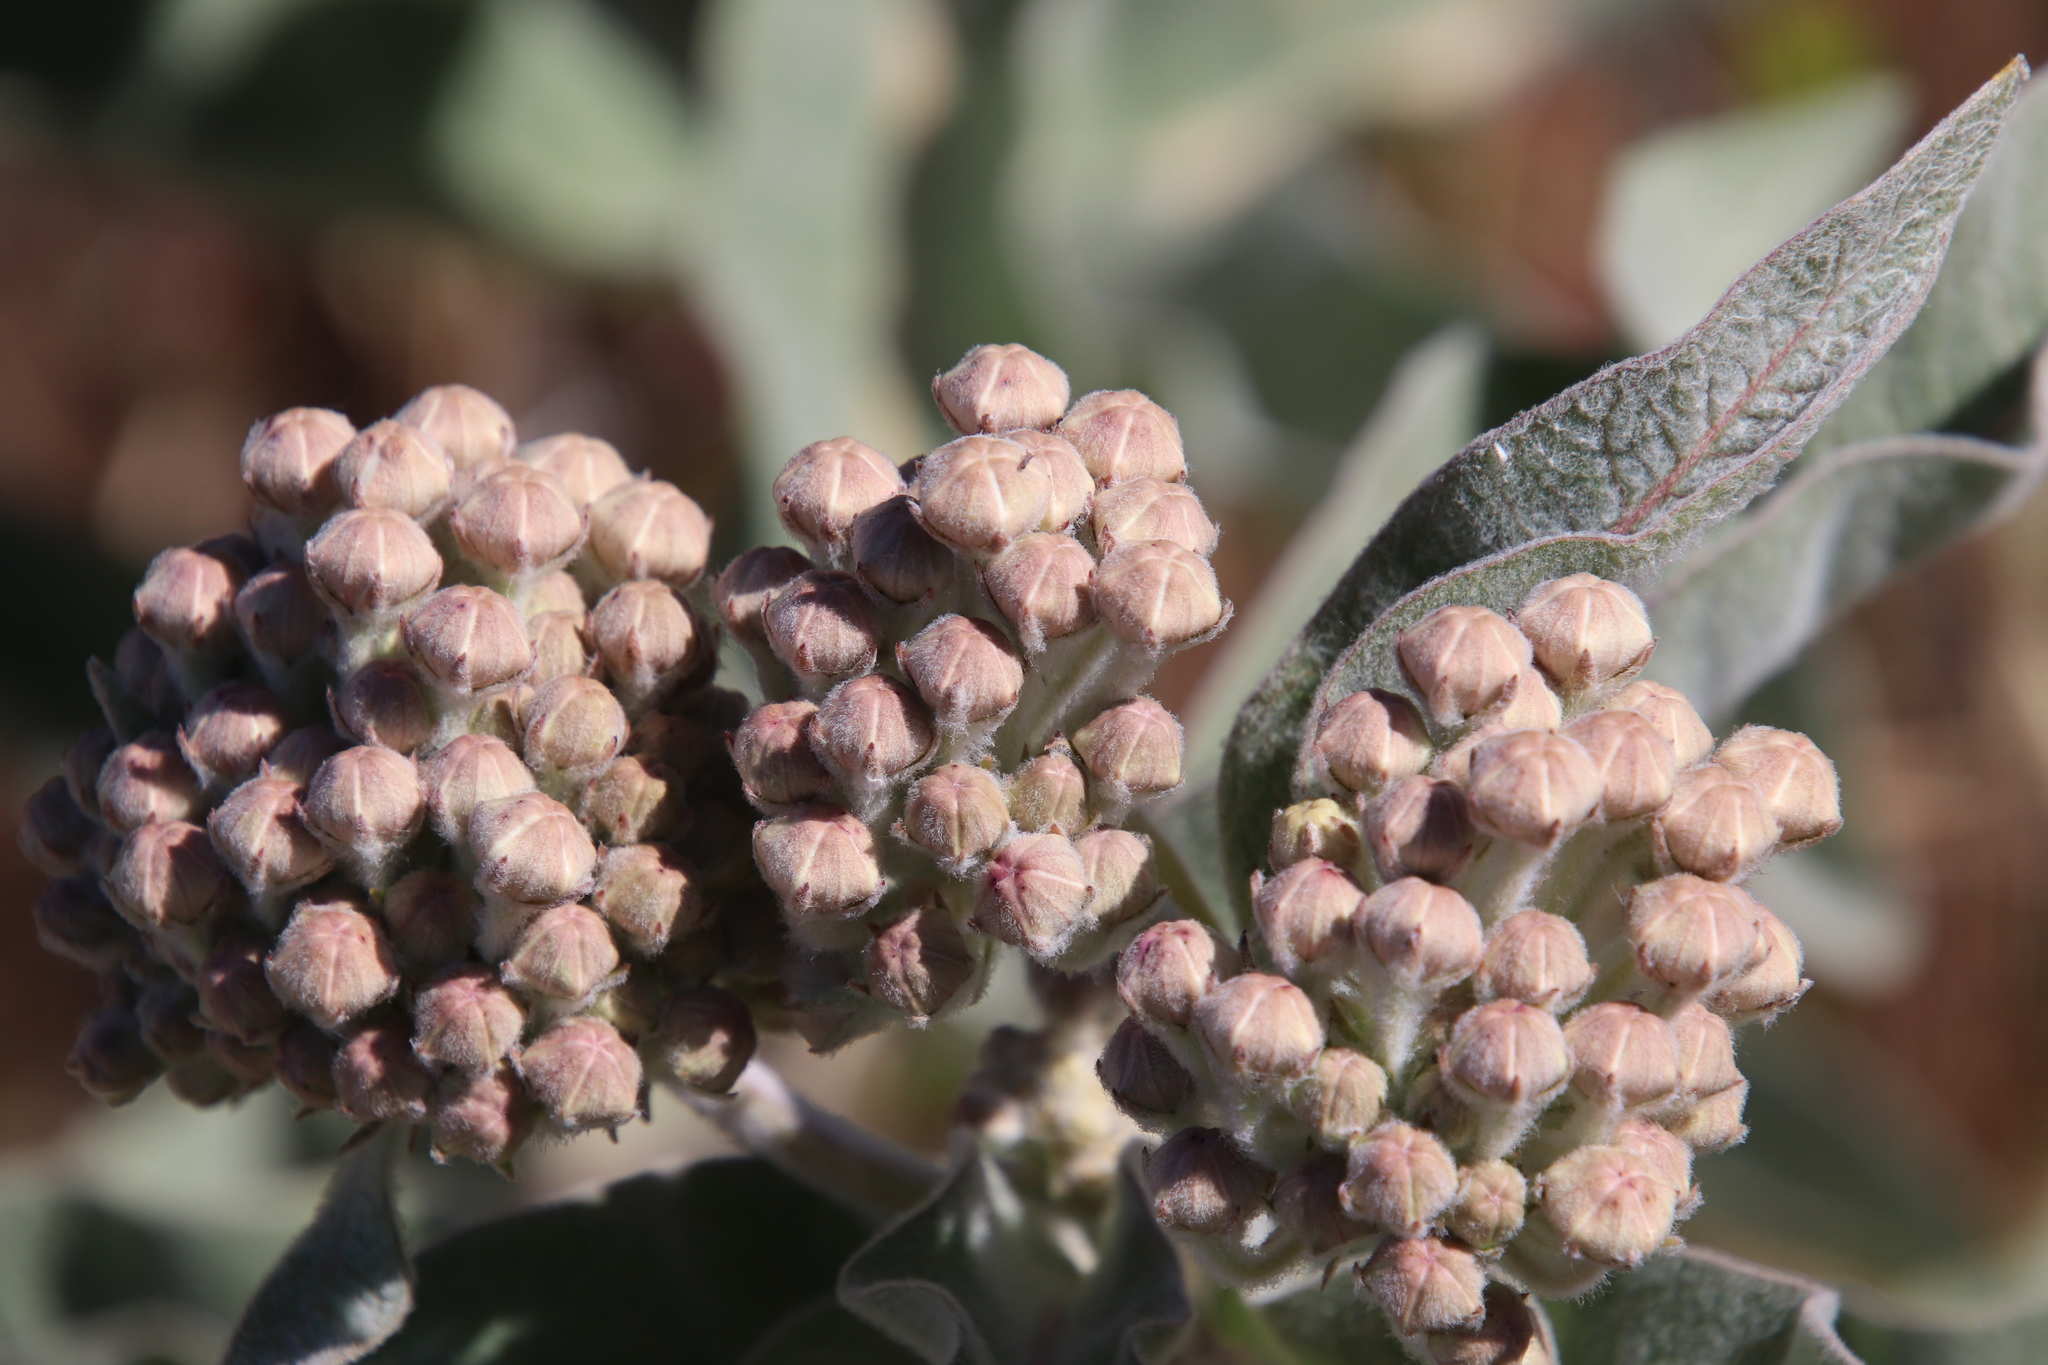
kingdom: Plantae
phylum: Tracheophyta
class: Magnoliopsida
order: Gentianales
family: Apocynaceae
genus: Asclepias
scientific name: Asclepias eriocarpa
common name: Indian milkweed
